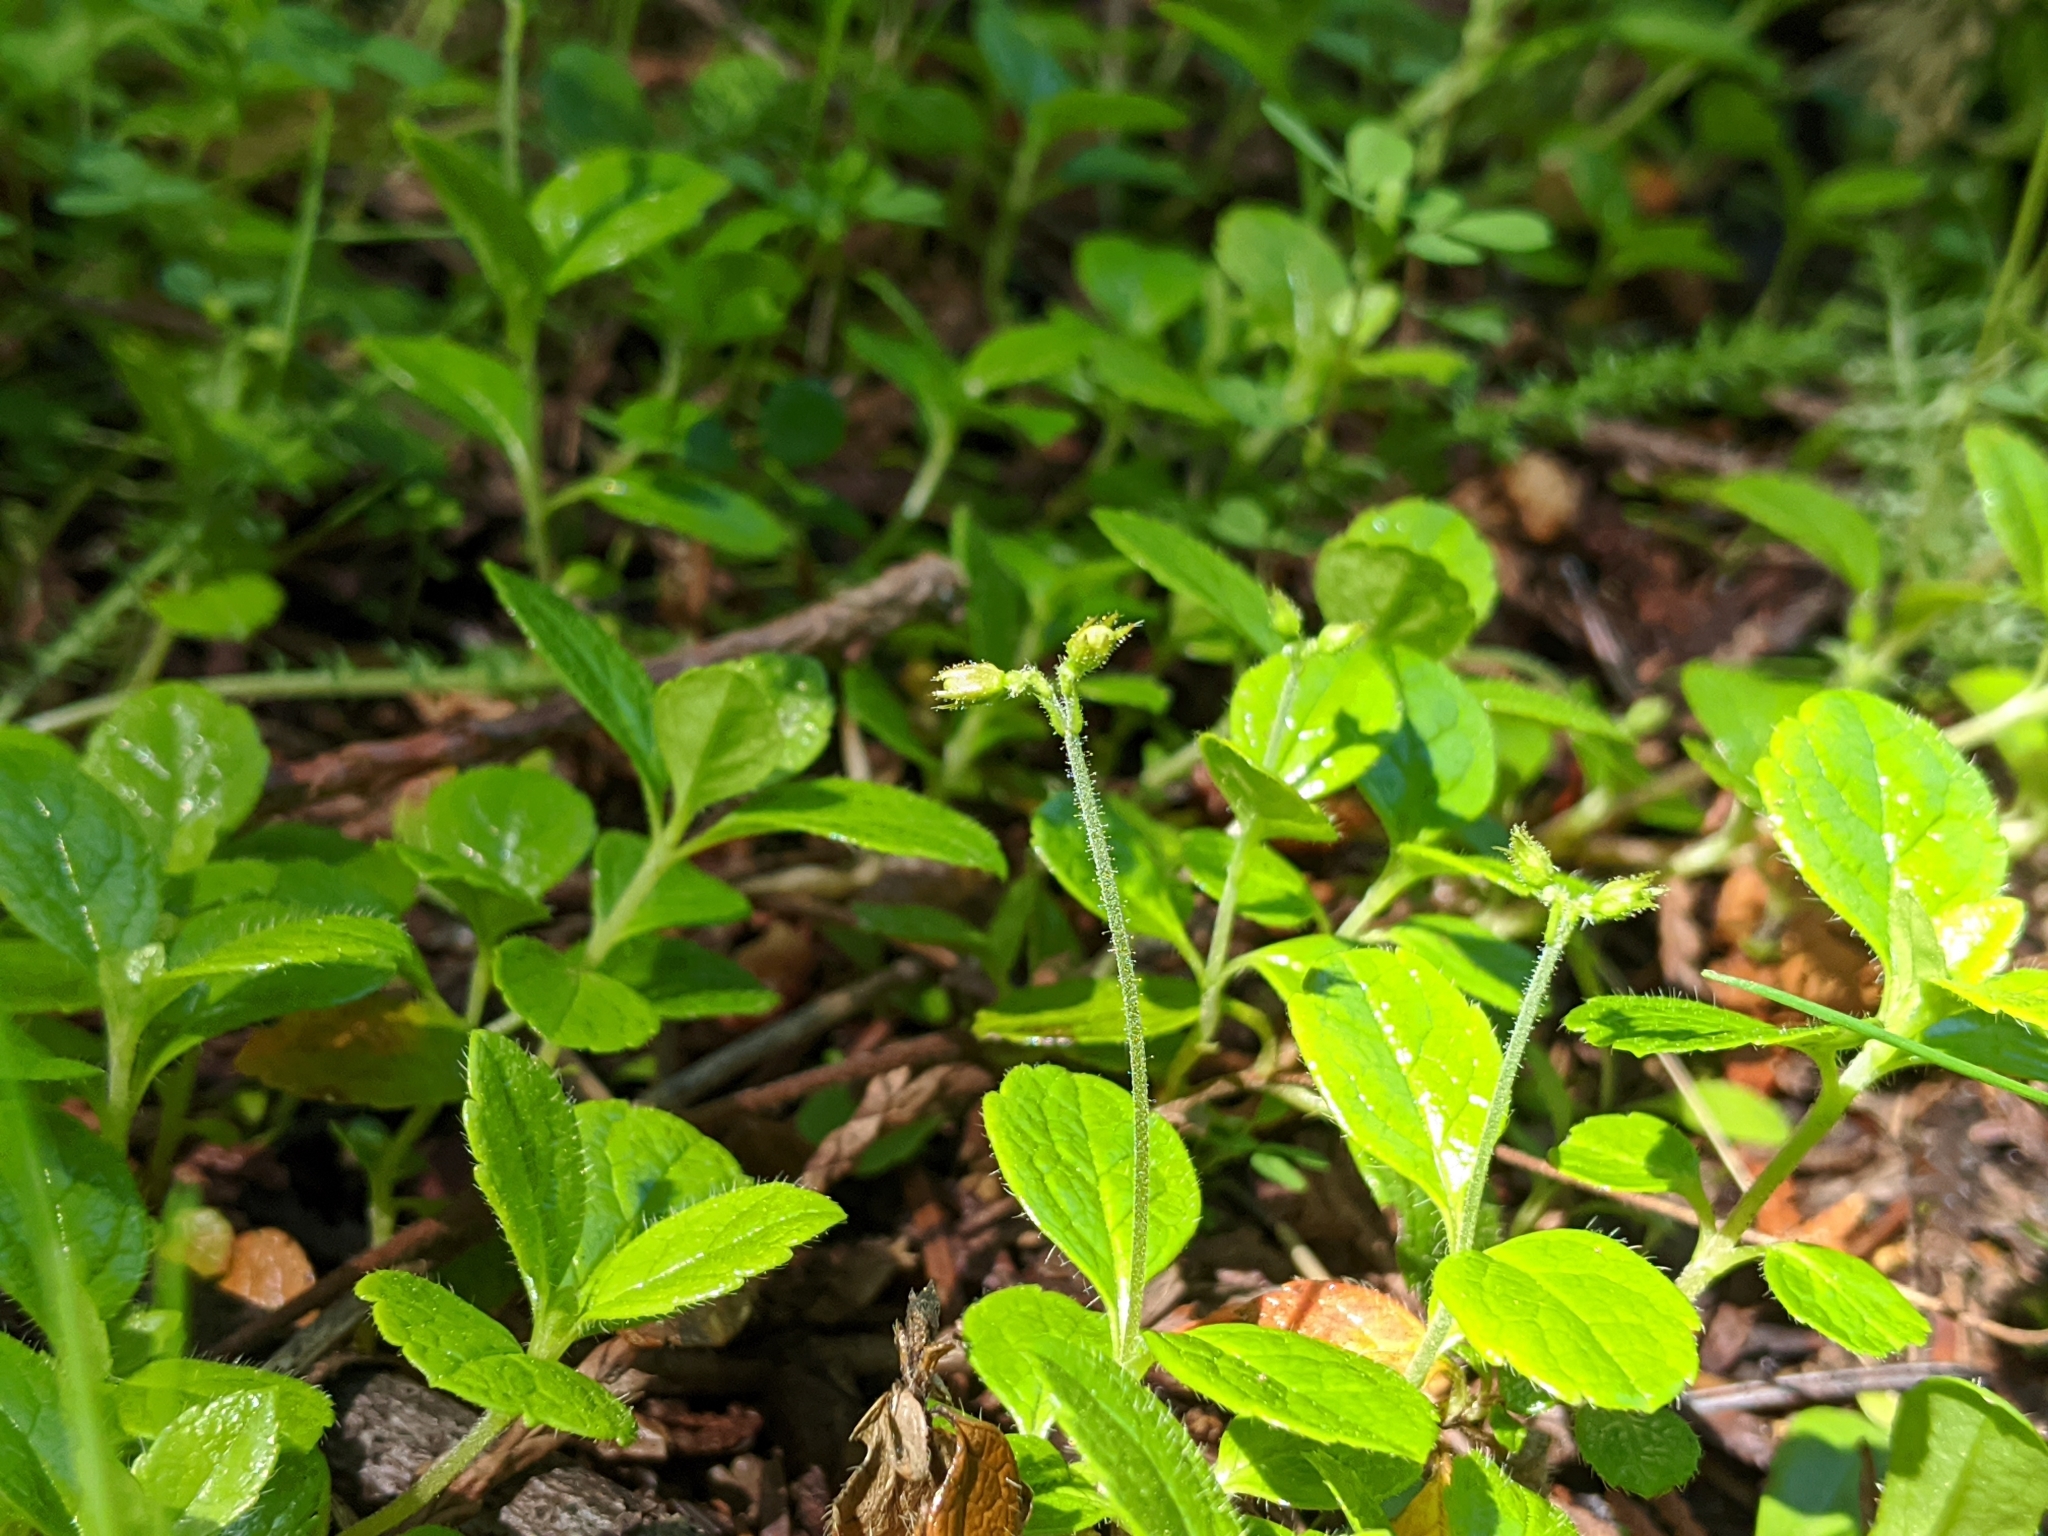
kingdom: Plantae
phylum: Tracheophyta
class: Magnoliopsida
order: Dipsacales
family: Caprifoliaceae
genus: Linnaea
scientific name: Linnaea borealis
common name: Twinflower
